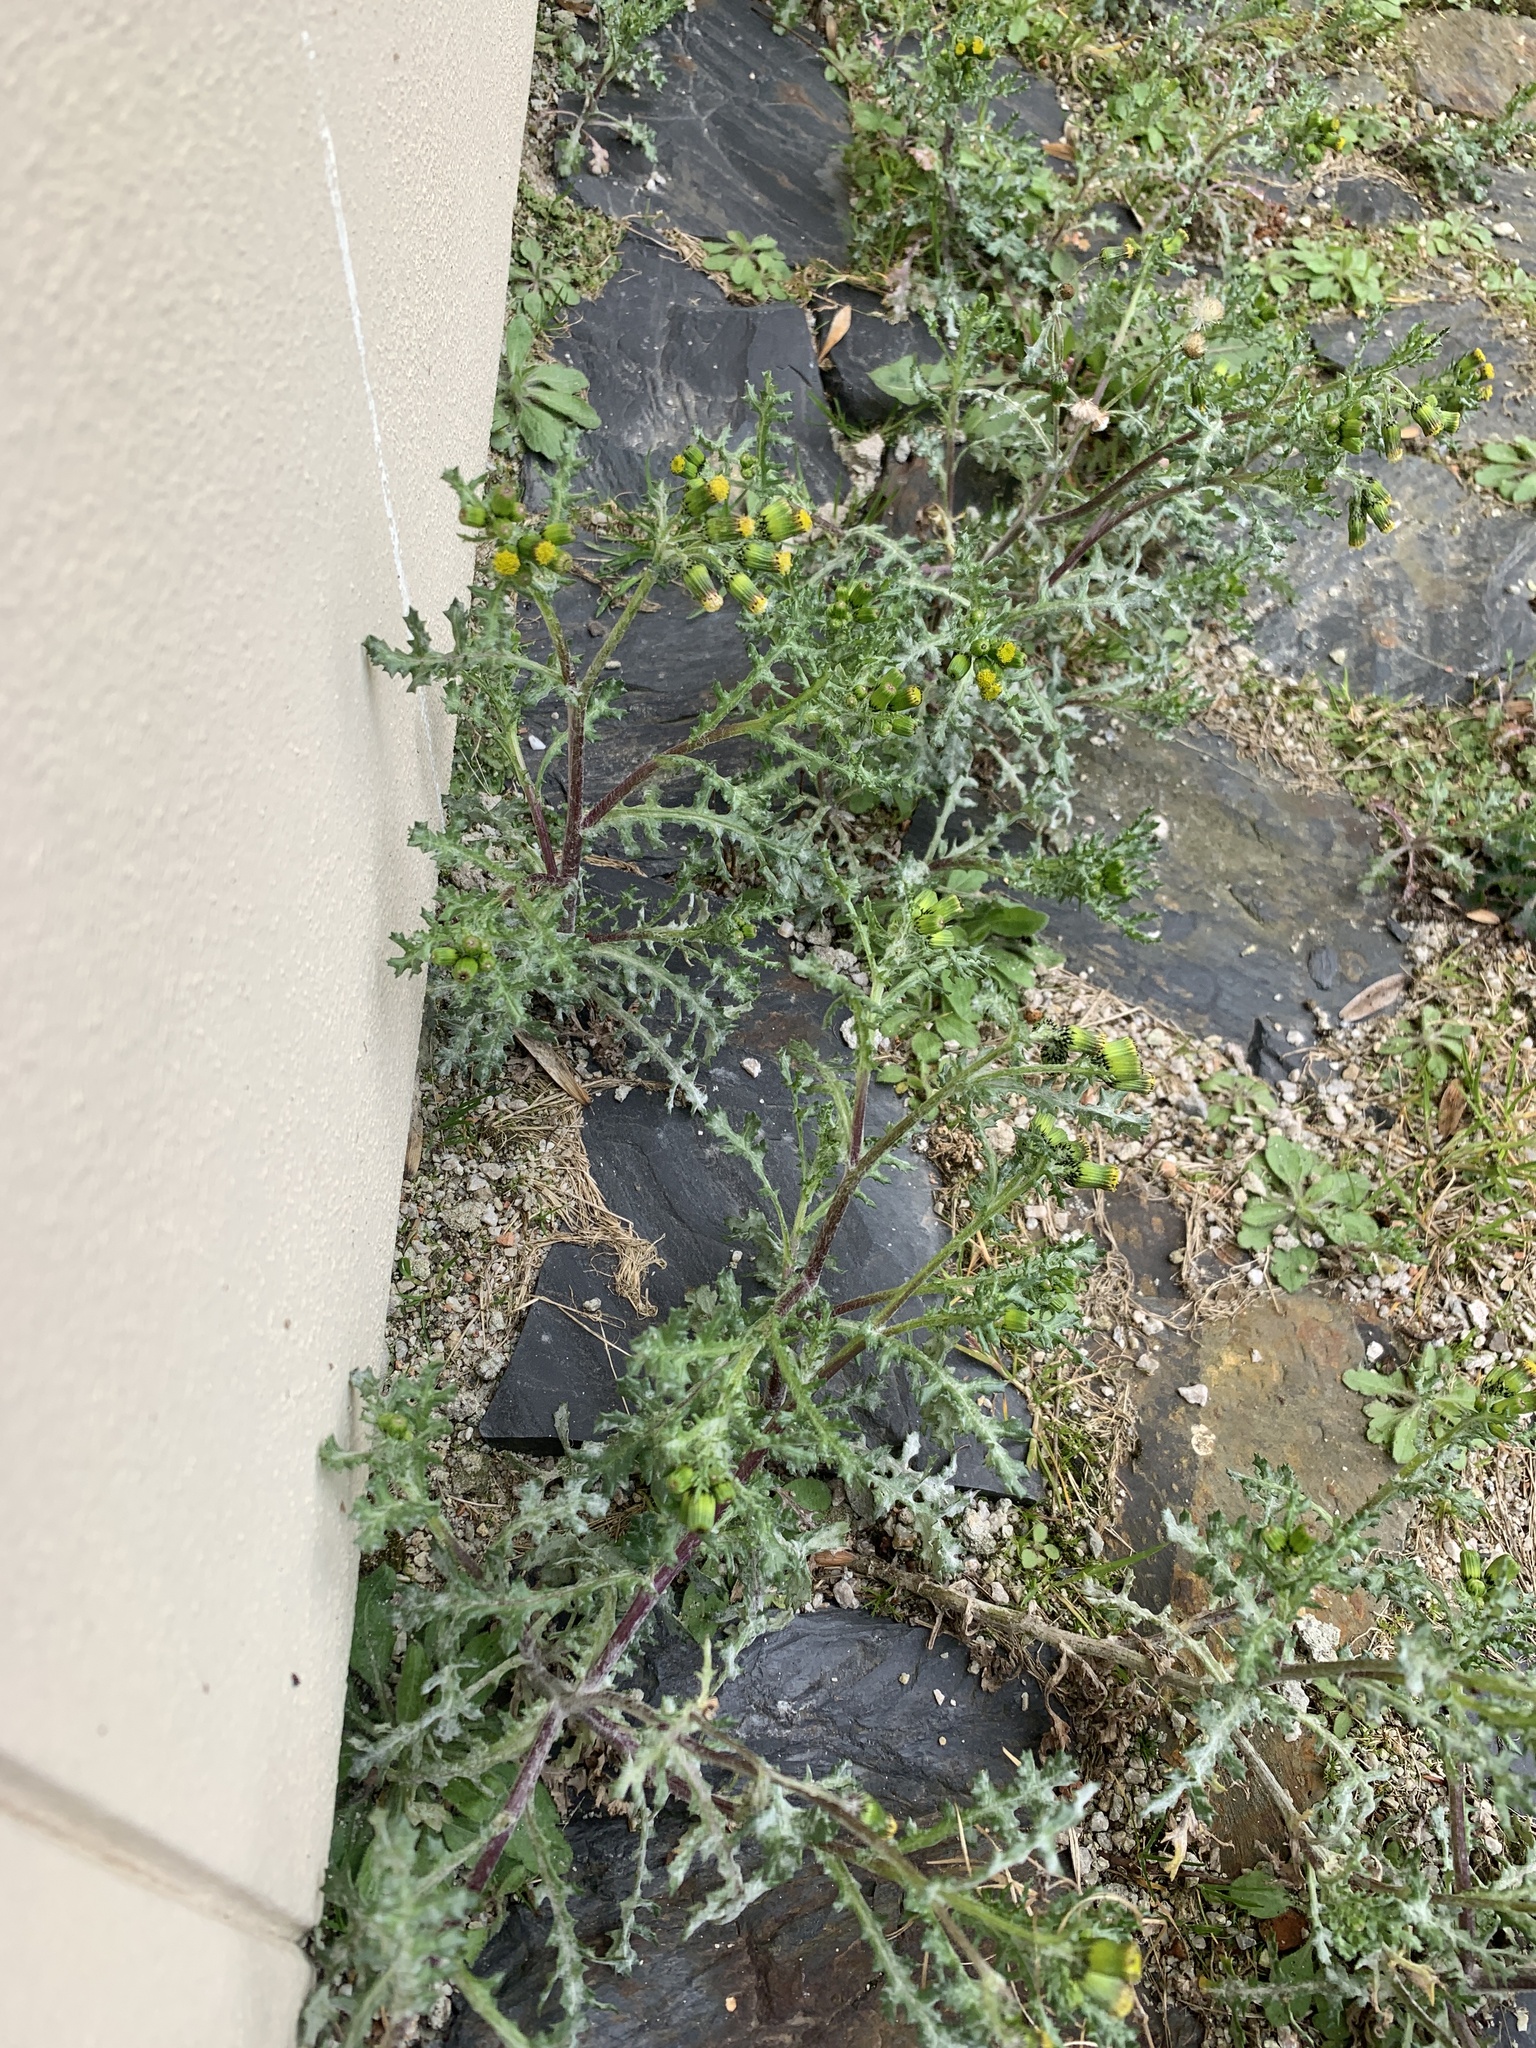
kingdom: Plantae
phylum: Tracheophyta
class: Magnoliopsida
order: Asterales
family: Asteraceae
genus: Senecio
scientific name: Senecio vulgaris
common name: Old-man-in-the-spring
